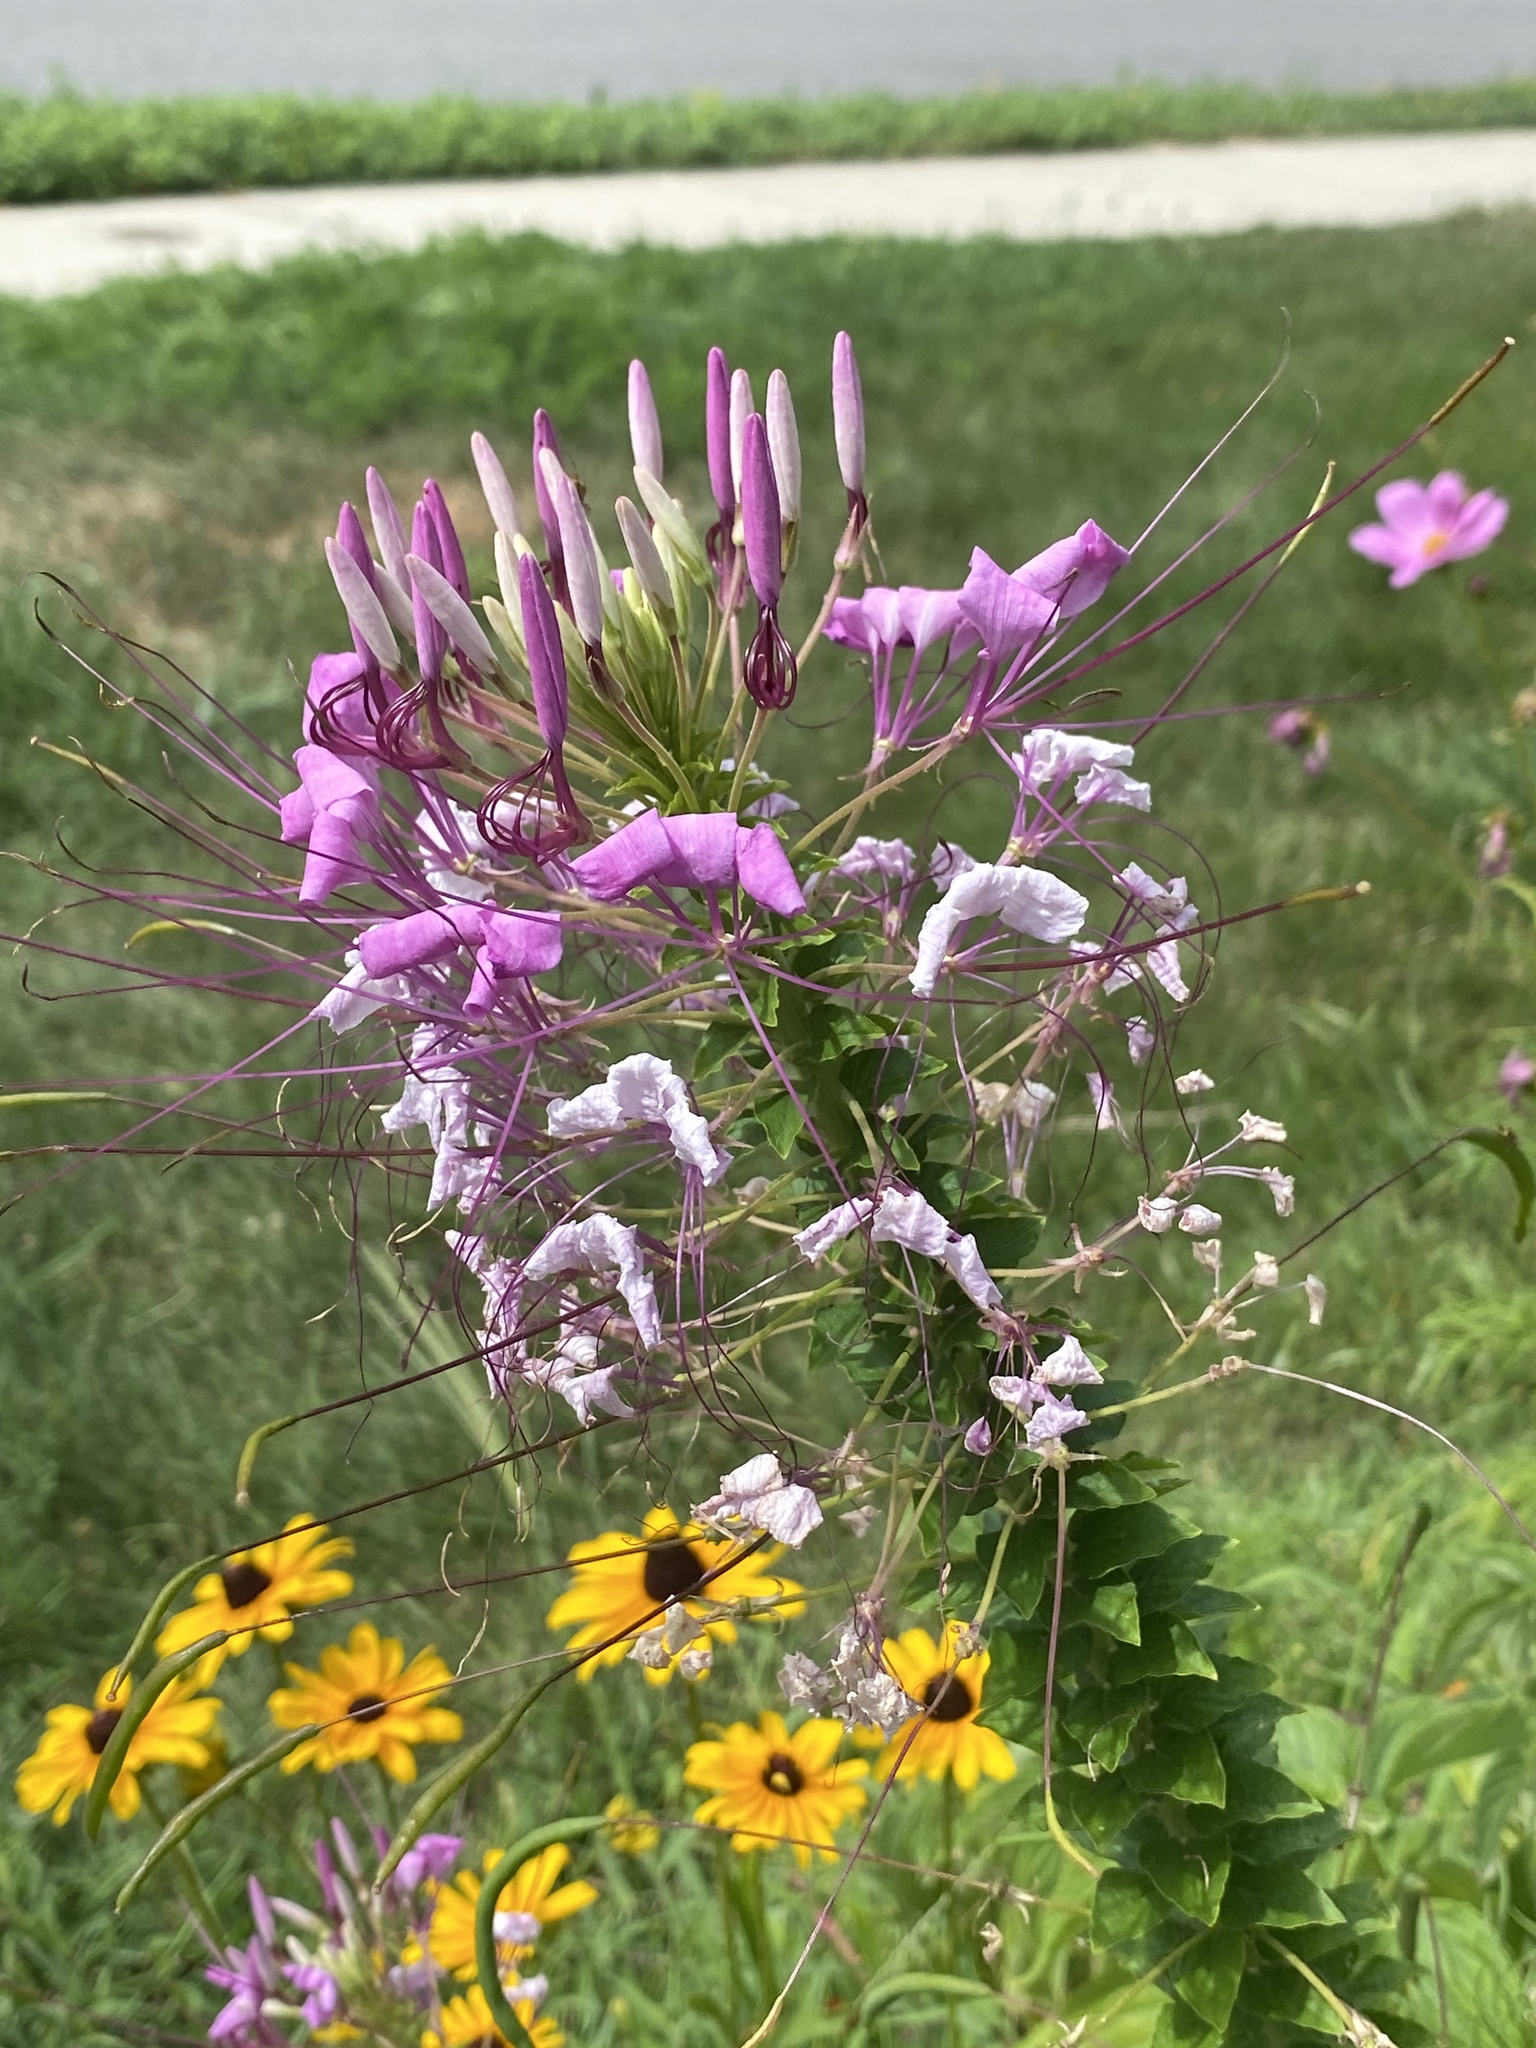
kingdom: Plantae
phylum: Tracheophyta
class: Magnoliopsida
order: Brassicales
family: Cleomaceae
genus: Tarenaya
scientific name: Tarenaya houtteana
